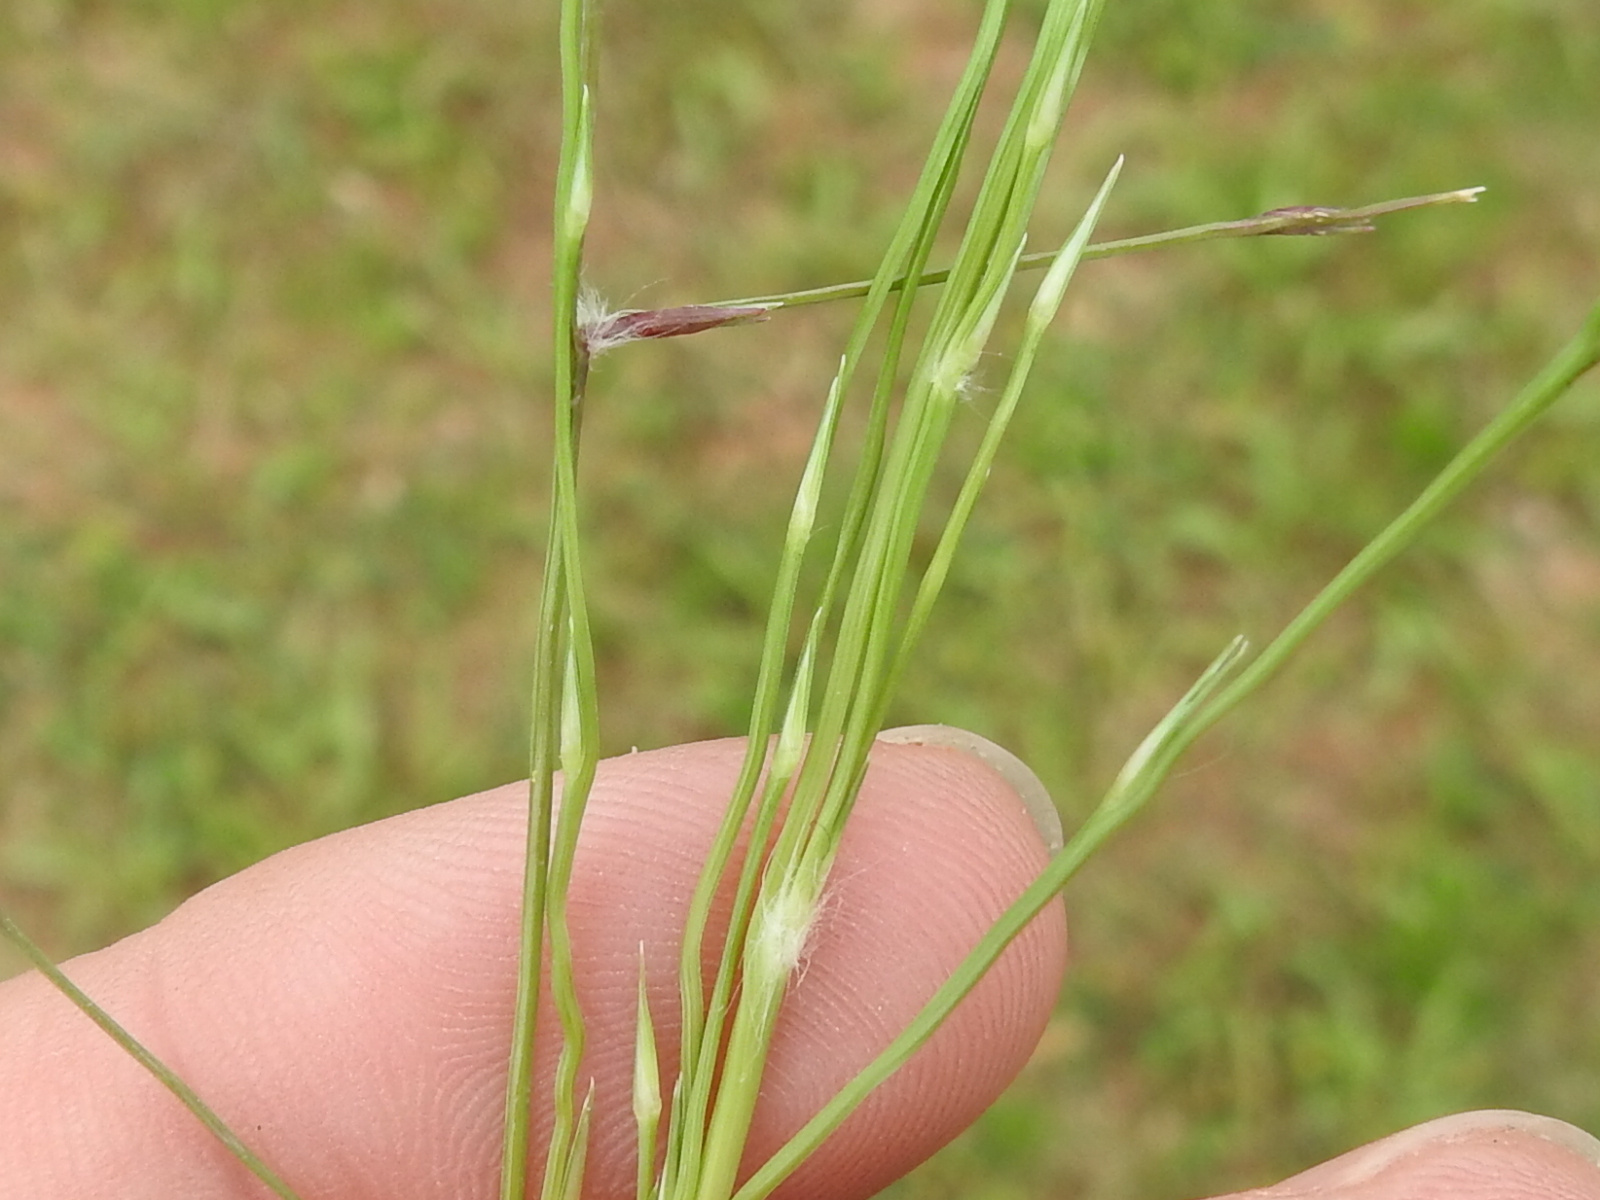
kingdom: Plantae
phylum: Tracheophyta
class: Liliopsida
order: Poales
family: Poaceae
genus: Eragrostis
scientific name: Eragrostis sessilispica
